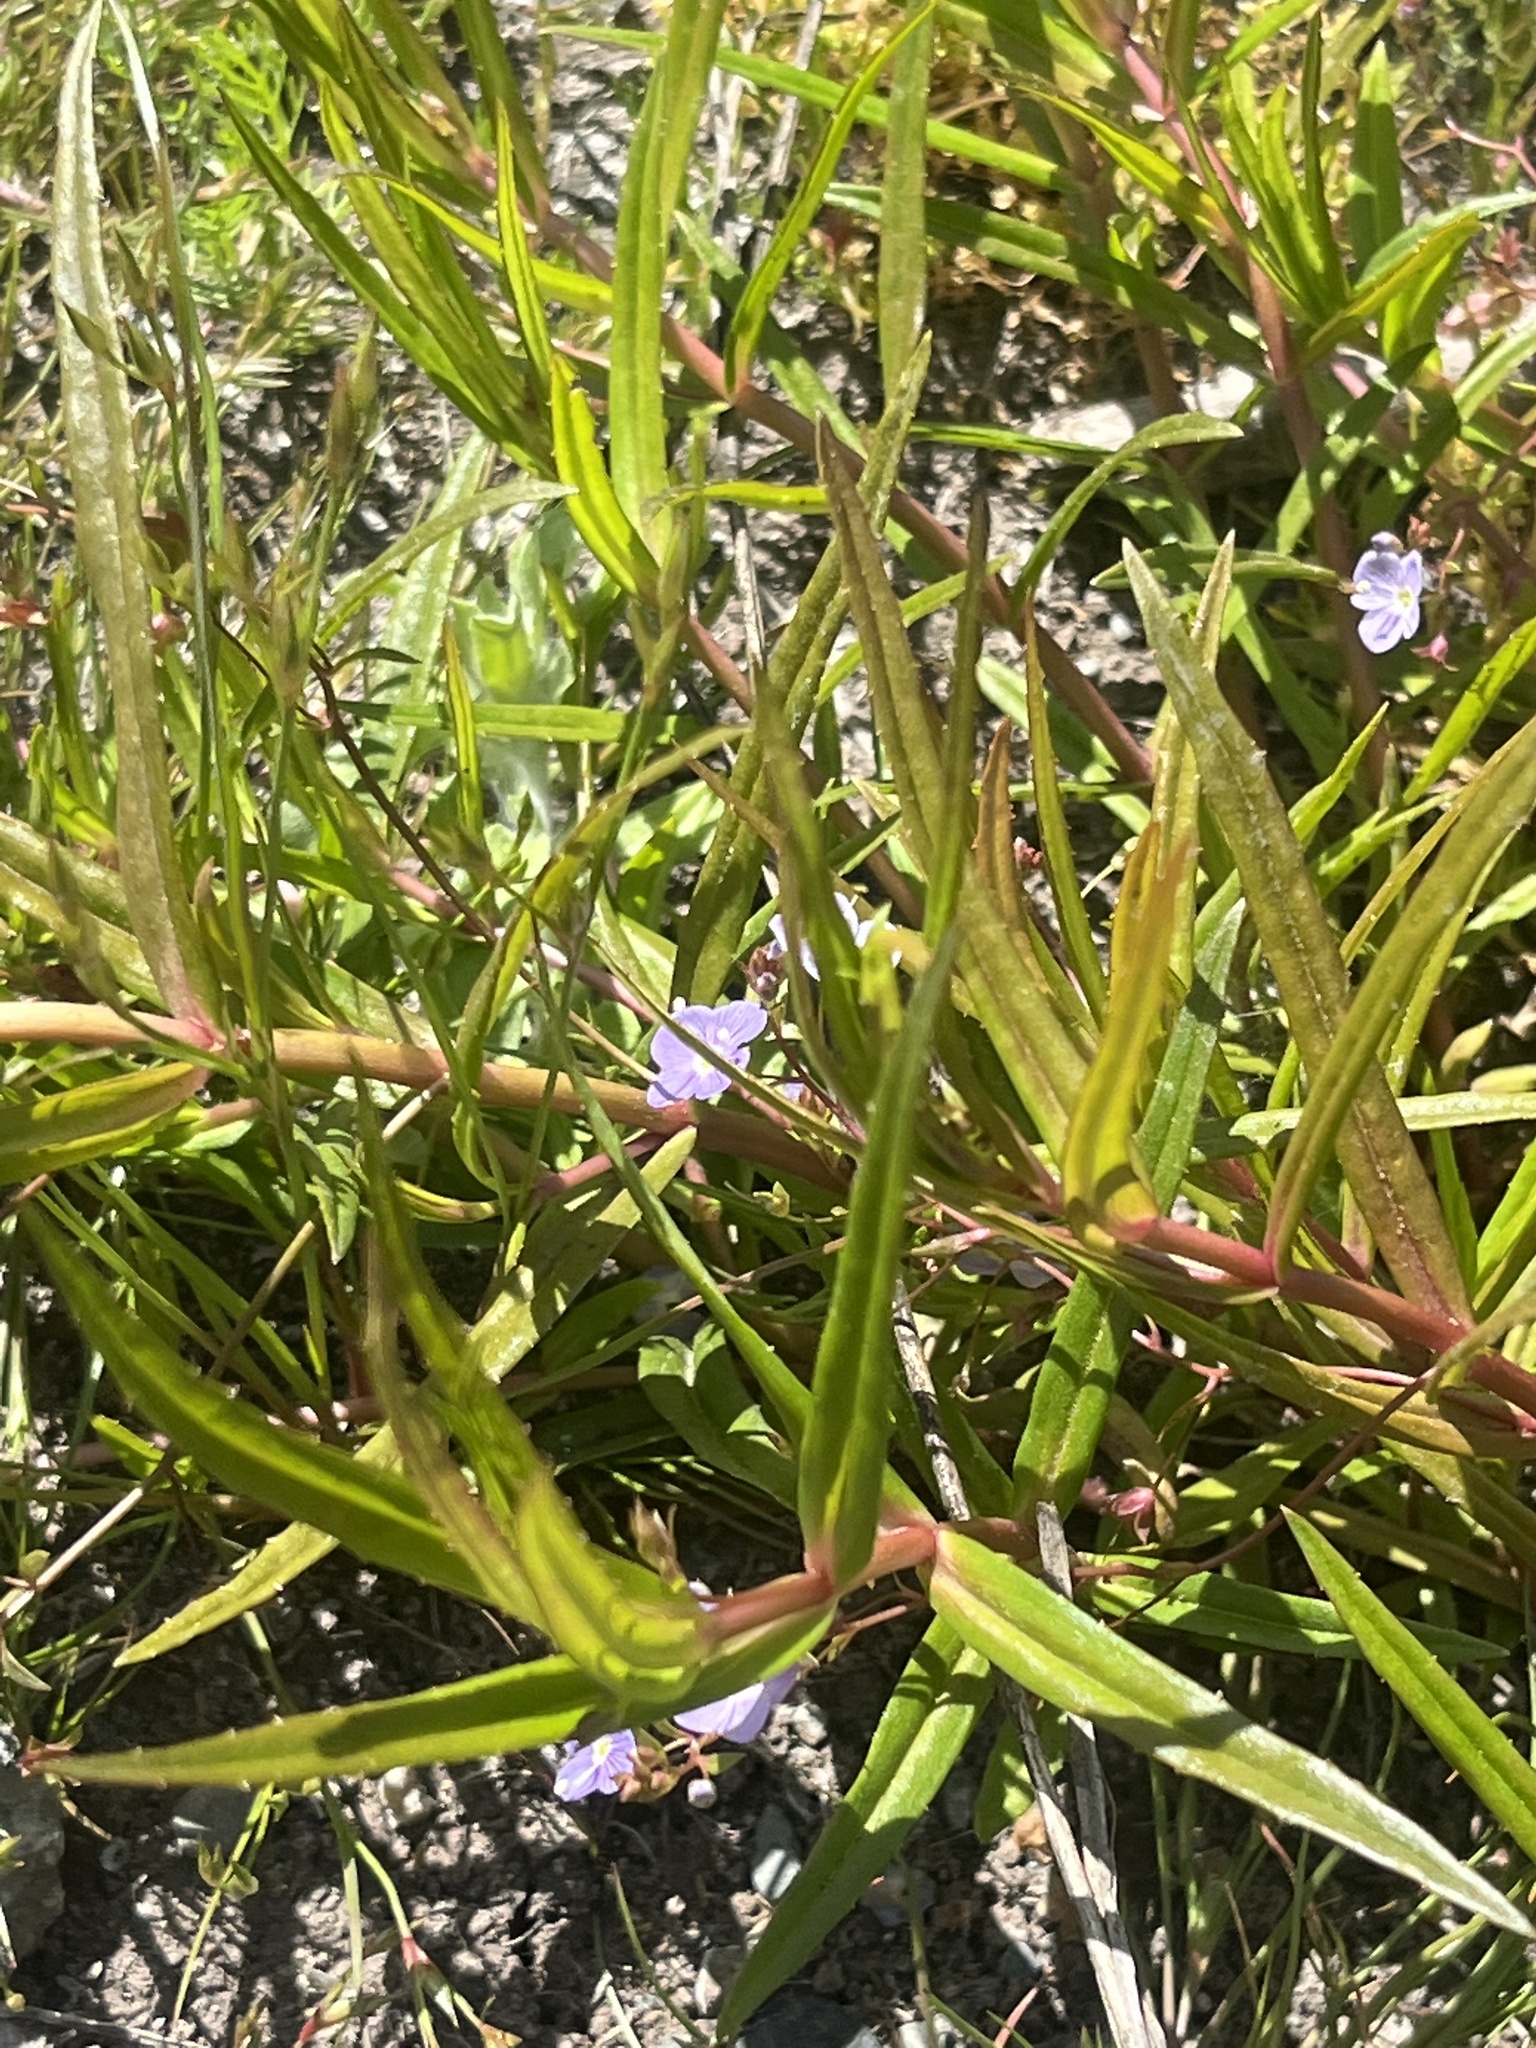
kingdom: Plantae
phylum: Tracheophyta
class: Magnoliopsida
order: Lamiales
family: Plantaginaceae
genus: Veronica
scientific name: Veronica scutellata
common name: Marsh speedwell
